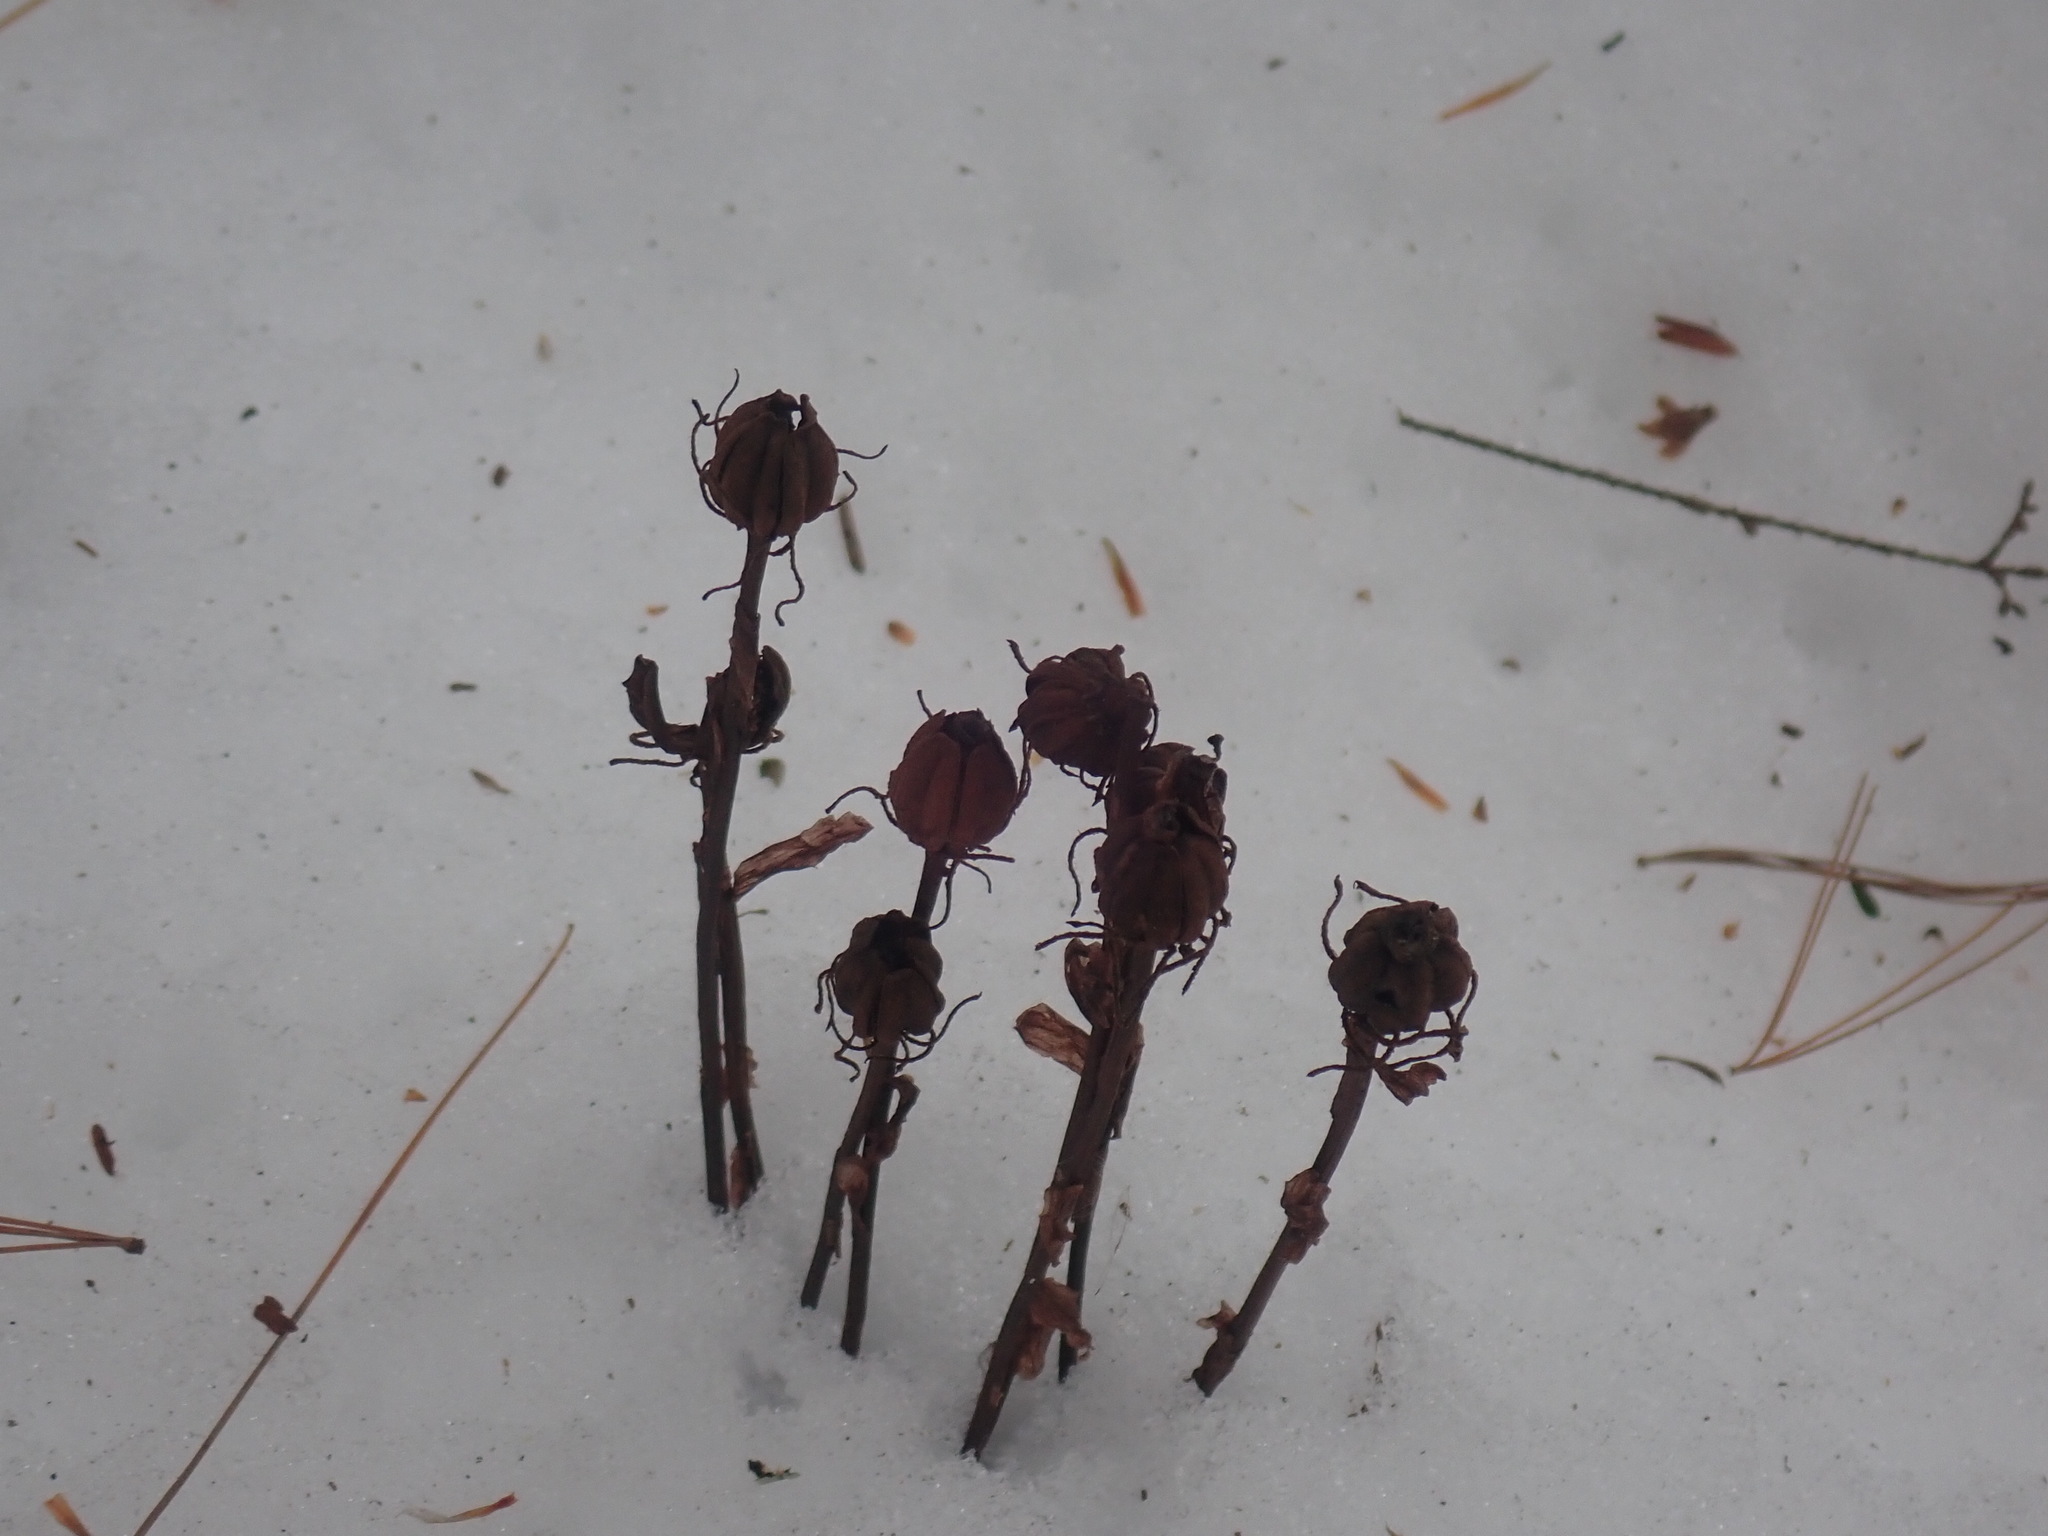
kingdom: Plantae
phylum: Tracheophyta
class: Magnoliopsida
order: Ericales
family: Ericaceae
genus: Monotropa
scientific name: Monotropa uniflora
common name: Convulsion root
